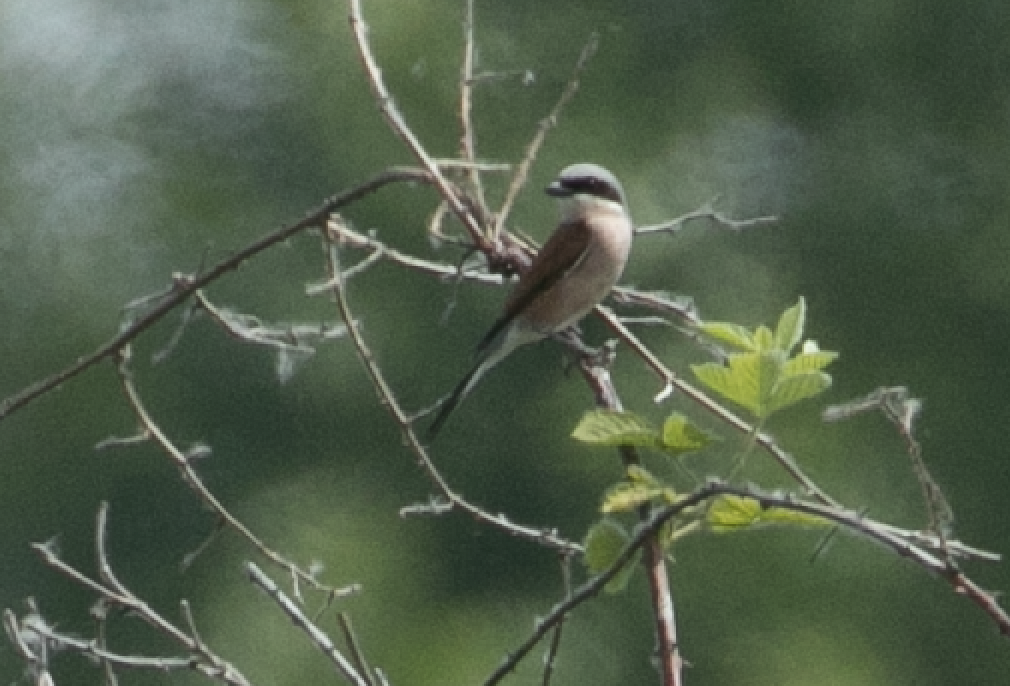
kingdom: Animalia
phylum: Chordata
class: Aves
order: Passeriformes
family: Laniidae
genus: Lanius
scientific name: Lanius collurio
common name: Red-backed shrike
